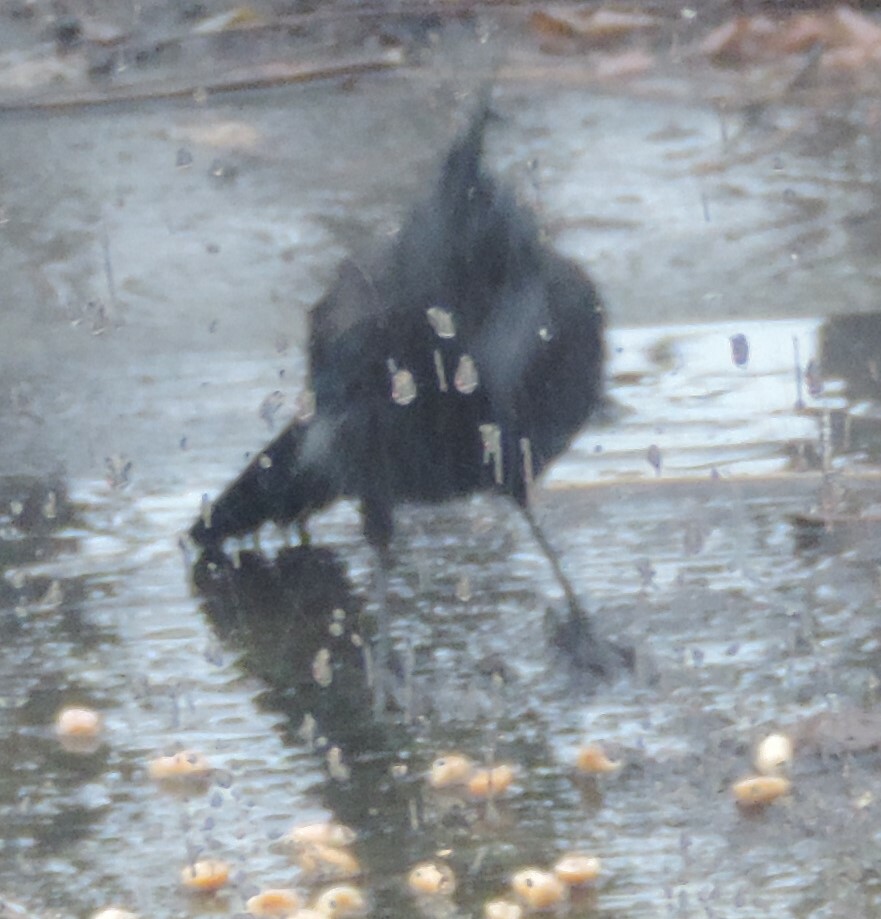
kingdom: Animalia
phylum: Chordata
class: Aves
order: Passeriformes
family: Corvidae
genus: Cyanocitta
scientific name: Cyanocitta stelleri
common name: Steller's jay
